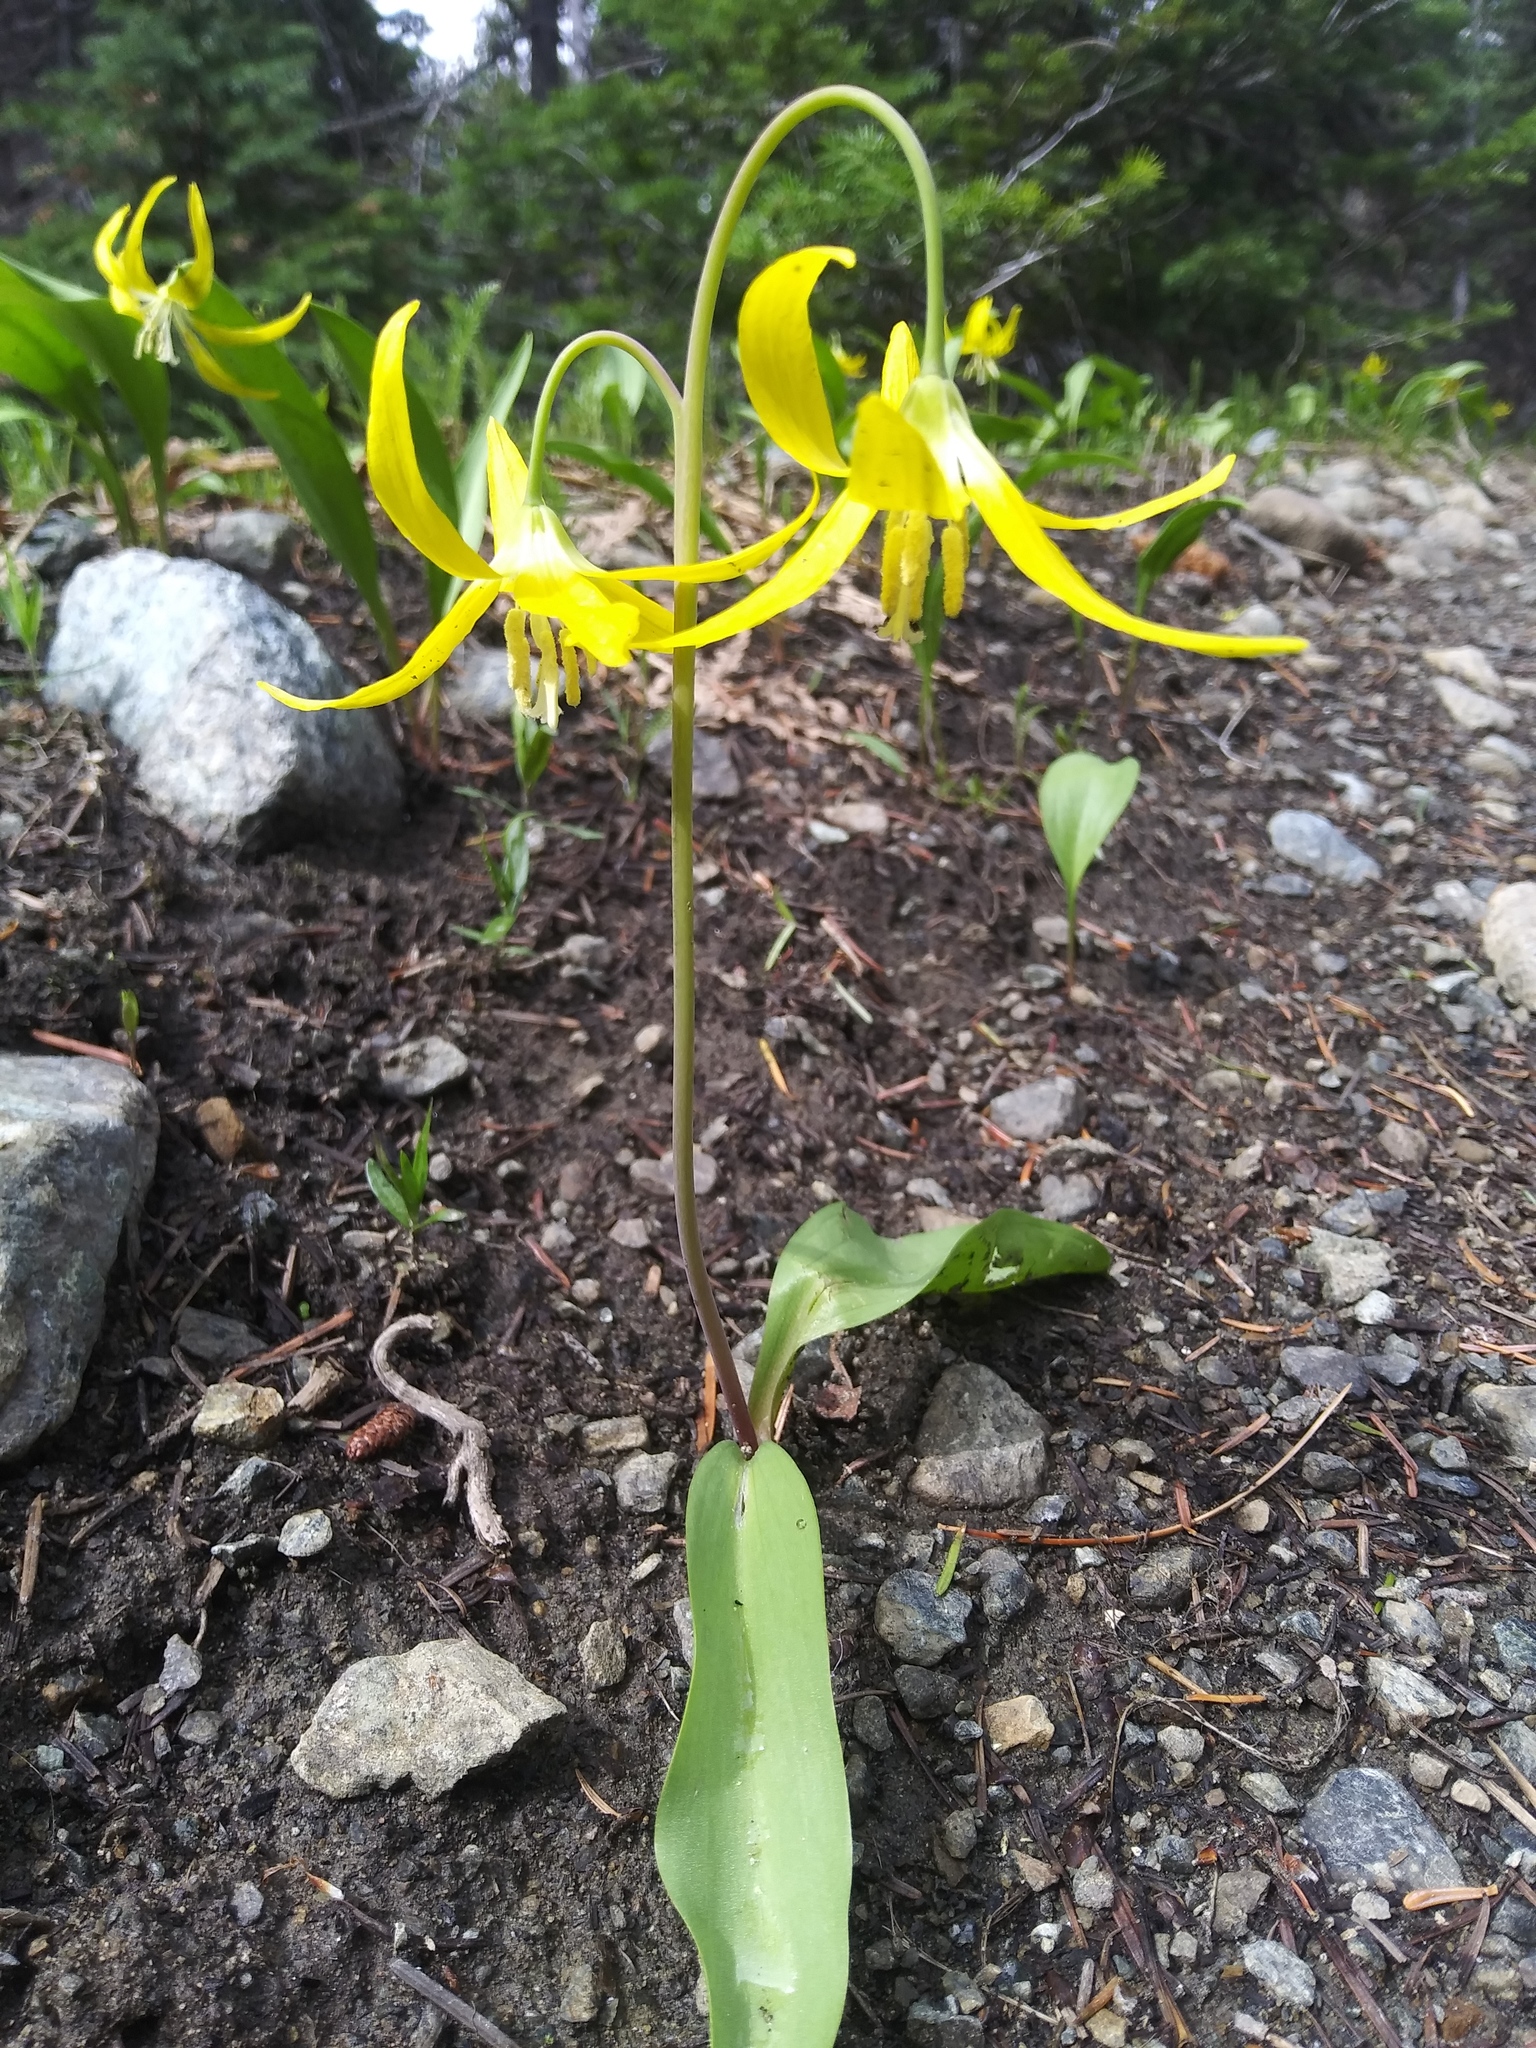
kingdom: Plantae
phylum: Tracheophyta
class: Liliopsida
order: Liliales
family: Liliaceae
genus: Erythronium
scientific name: Erythronium grandiflorum
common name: Avalanche-lily
